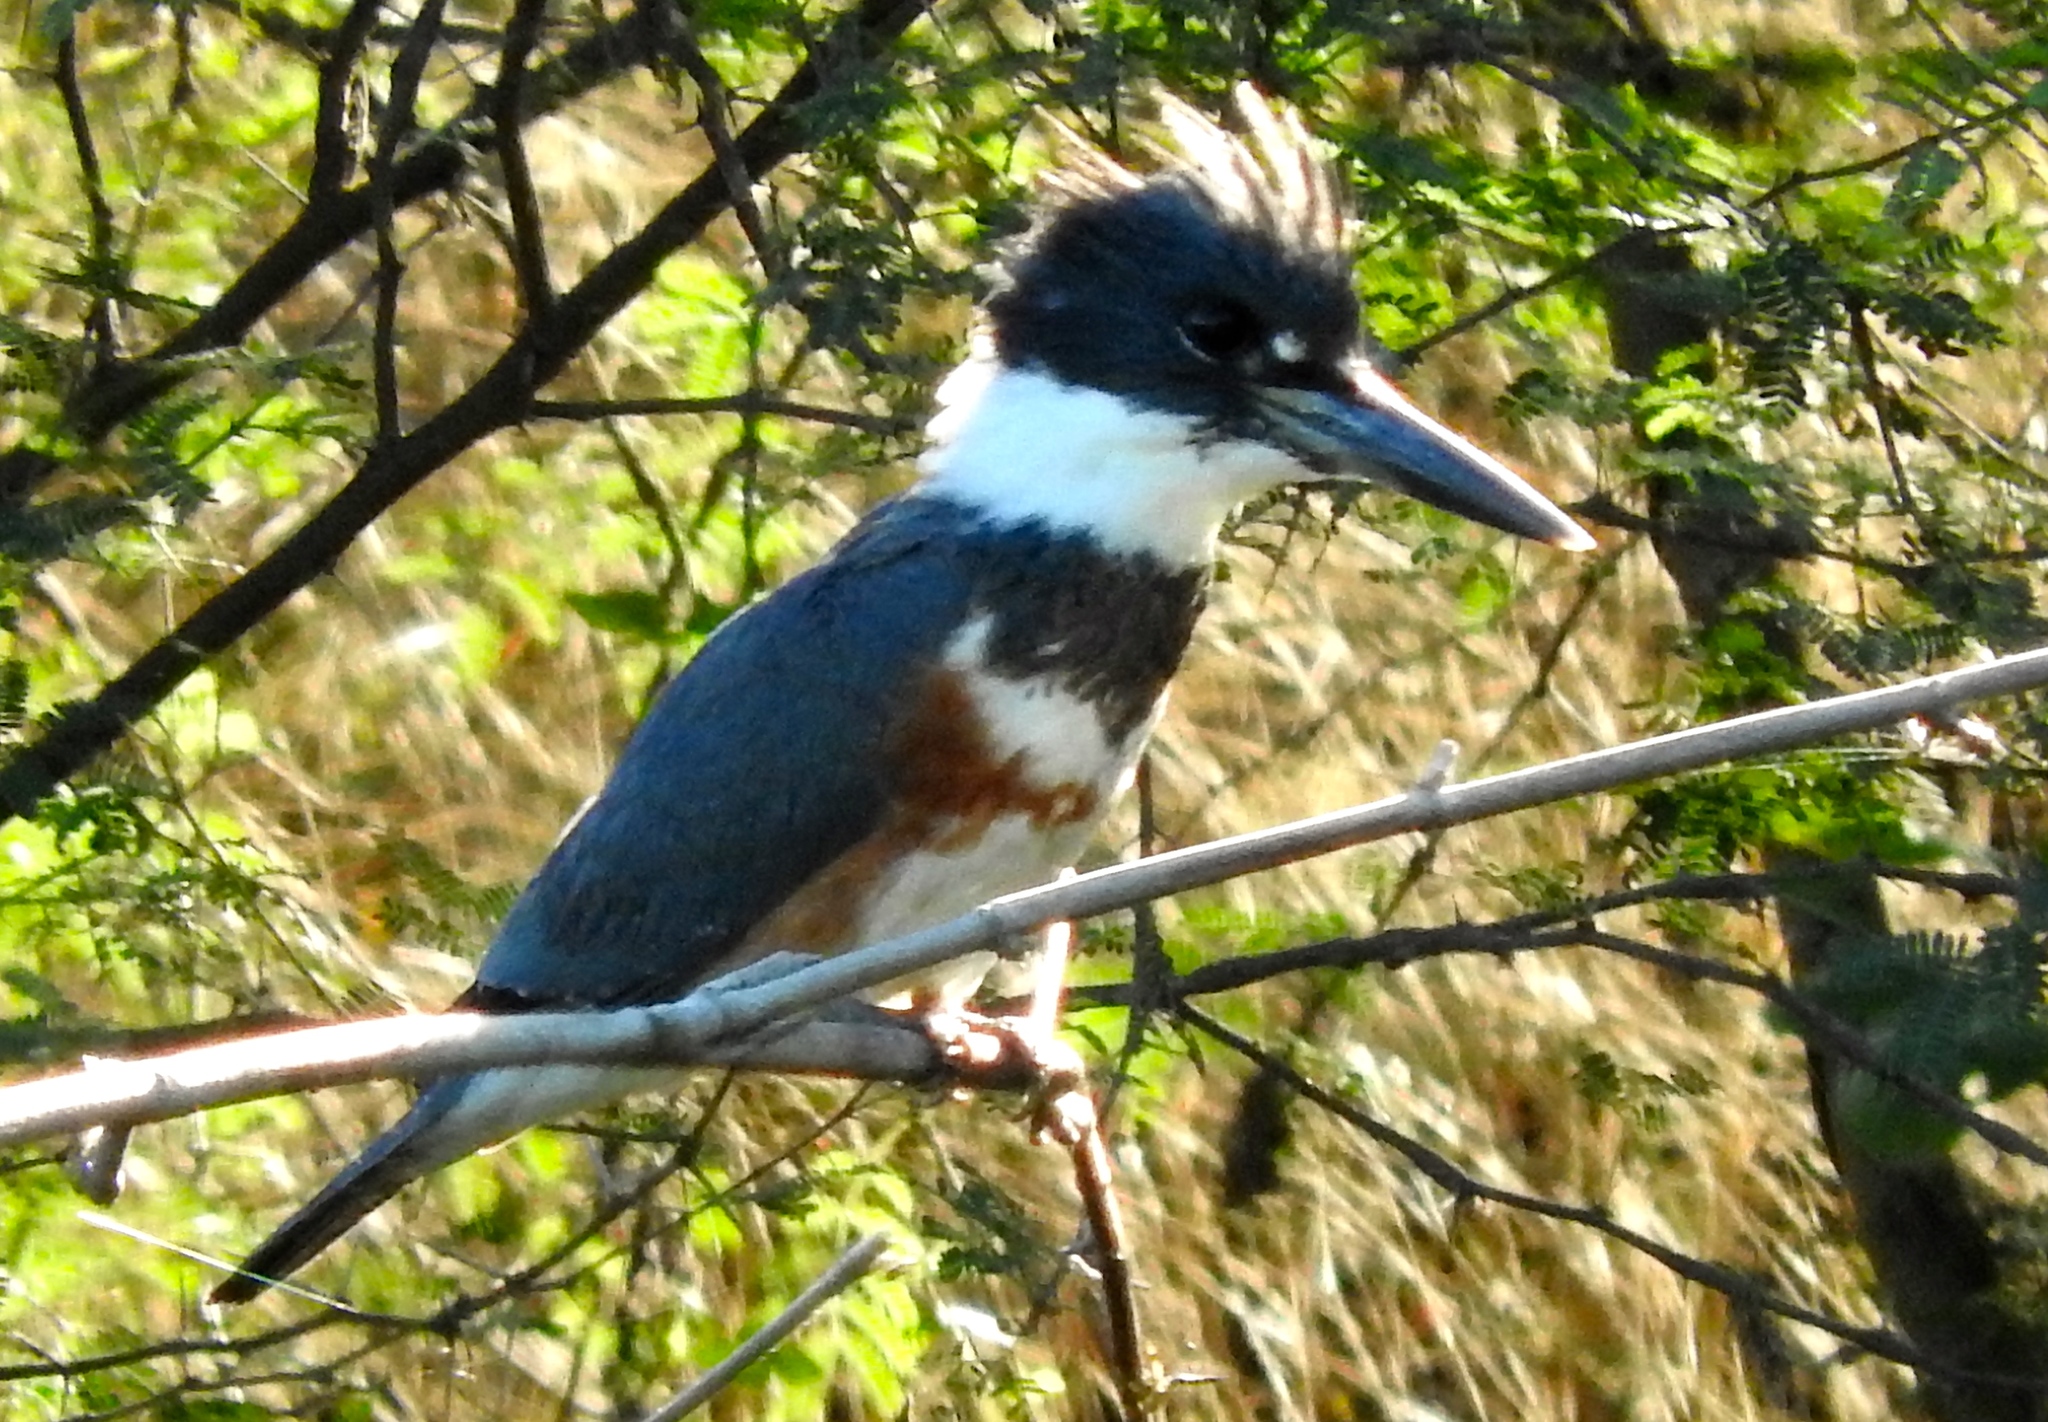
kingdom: Animalia
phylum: Chordata
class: Aves
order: Coraciiformes
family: Alcedinidae
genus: Megaceryle
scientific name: Megaceryle alcyon
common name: Belted kingfisher
